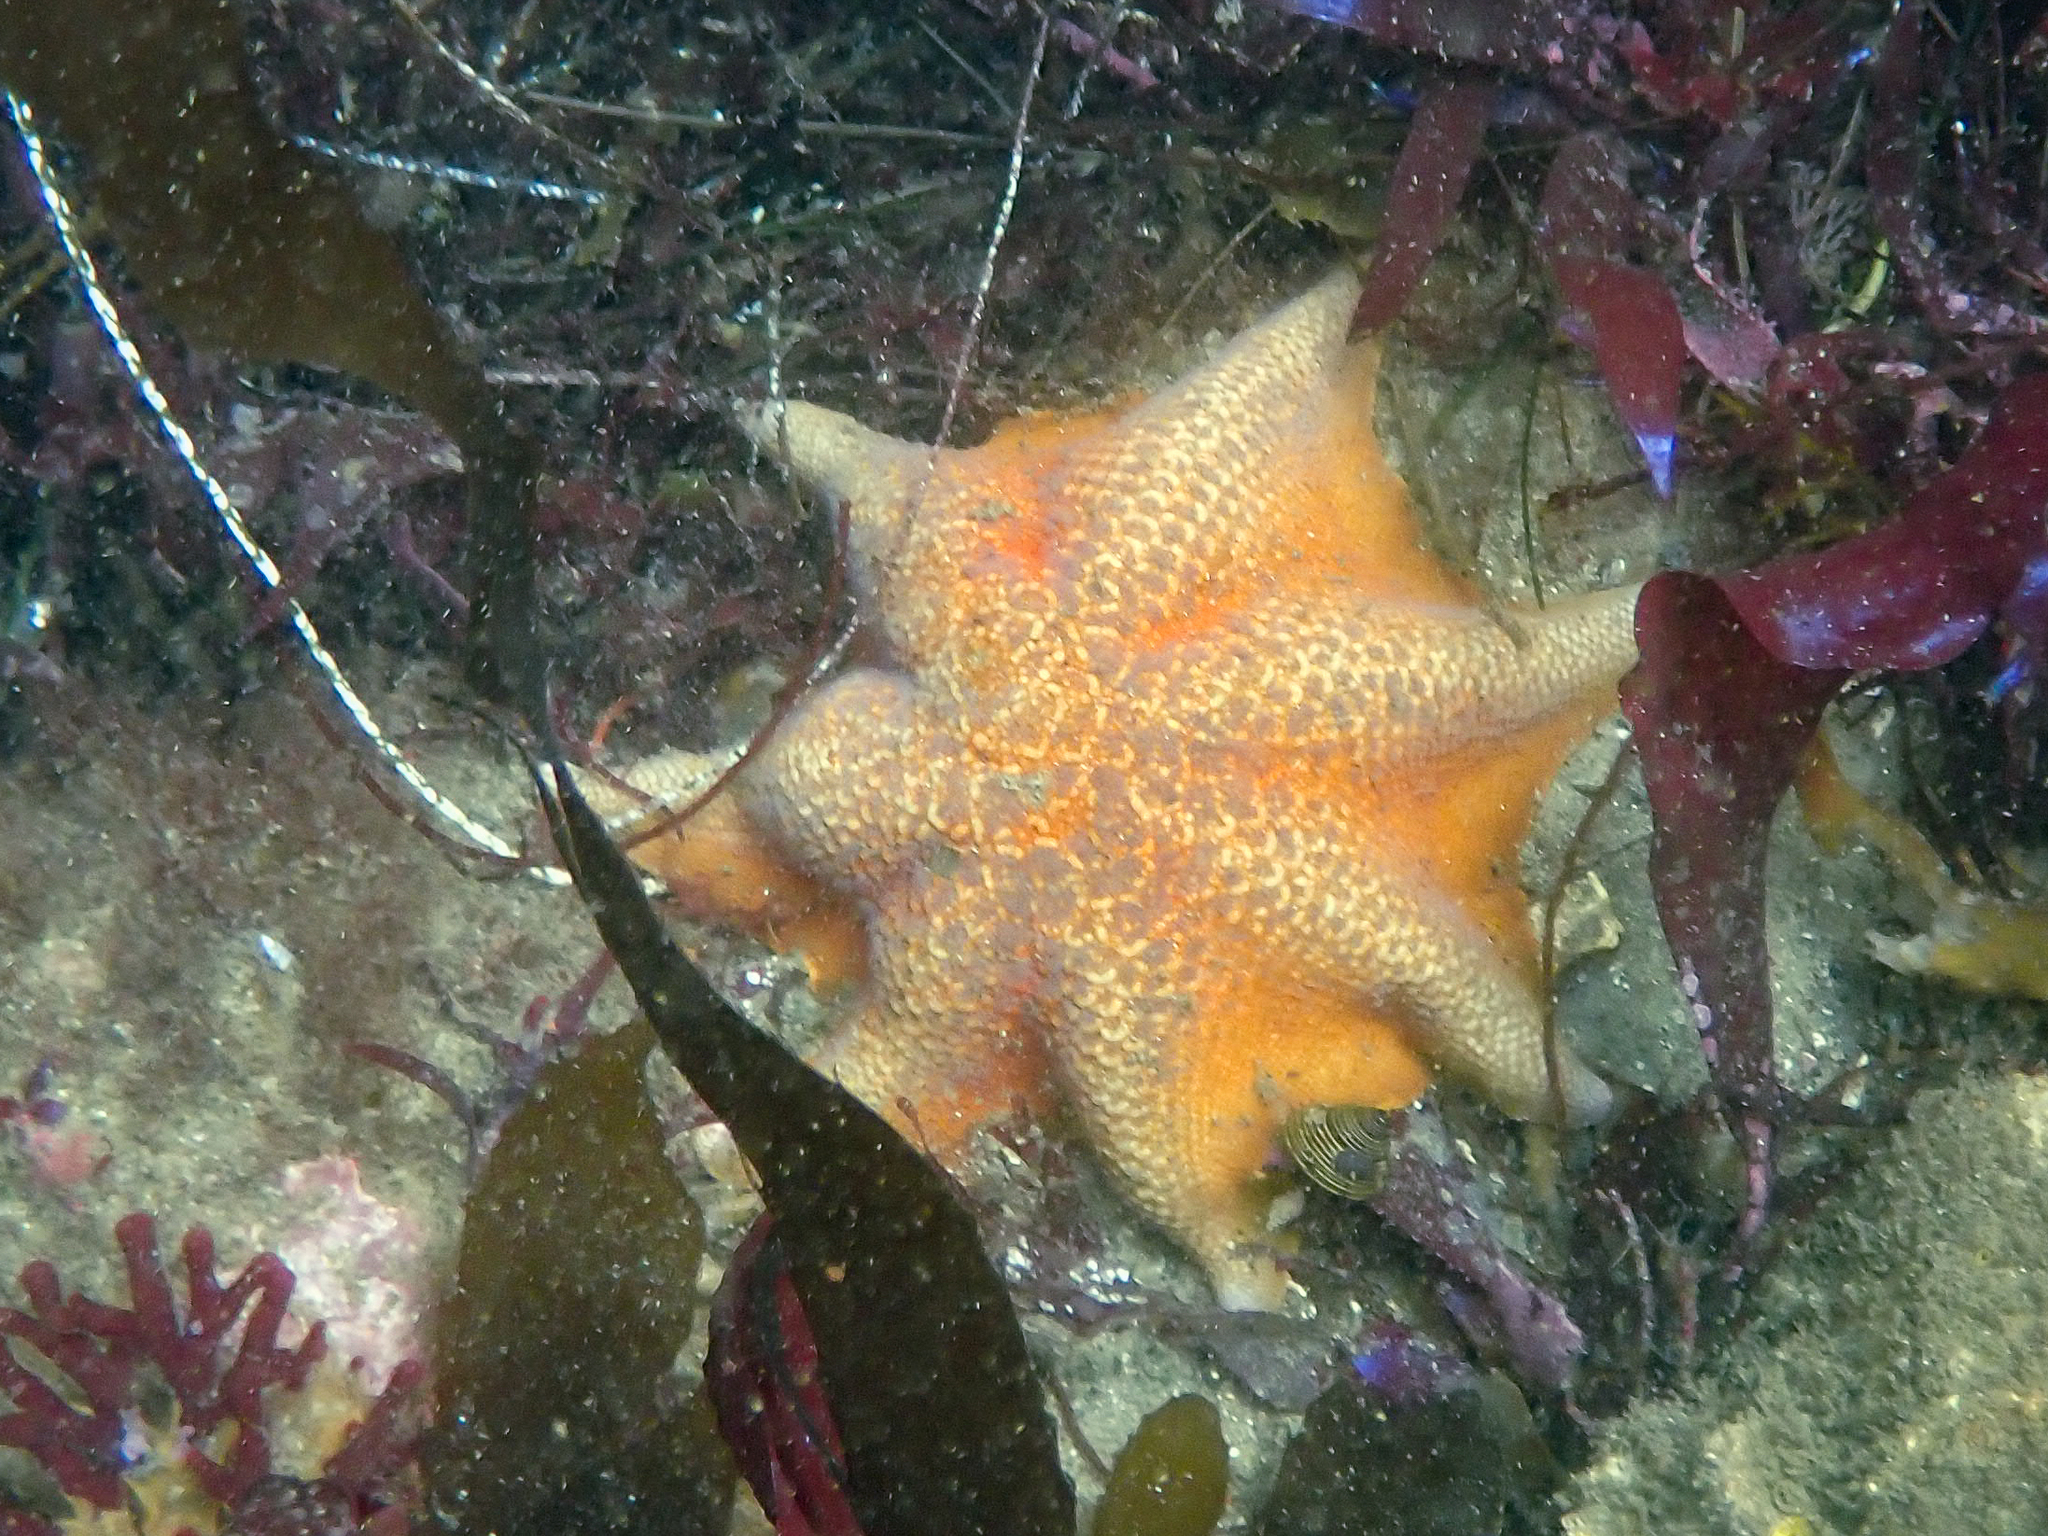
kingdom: Animalia
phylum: Echinodermata
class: Asteroidea
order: Valvatida
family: Asterinidae
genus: Patiria
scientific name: Patiria miniata
